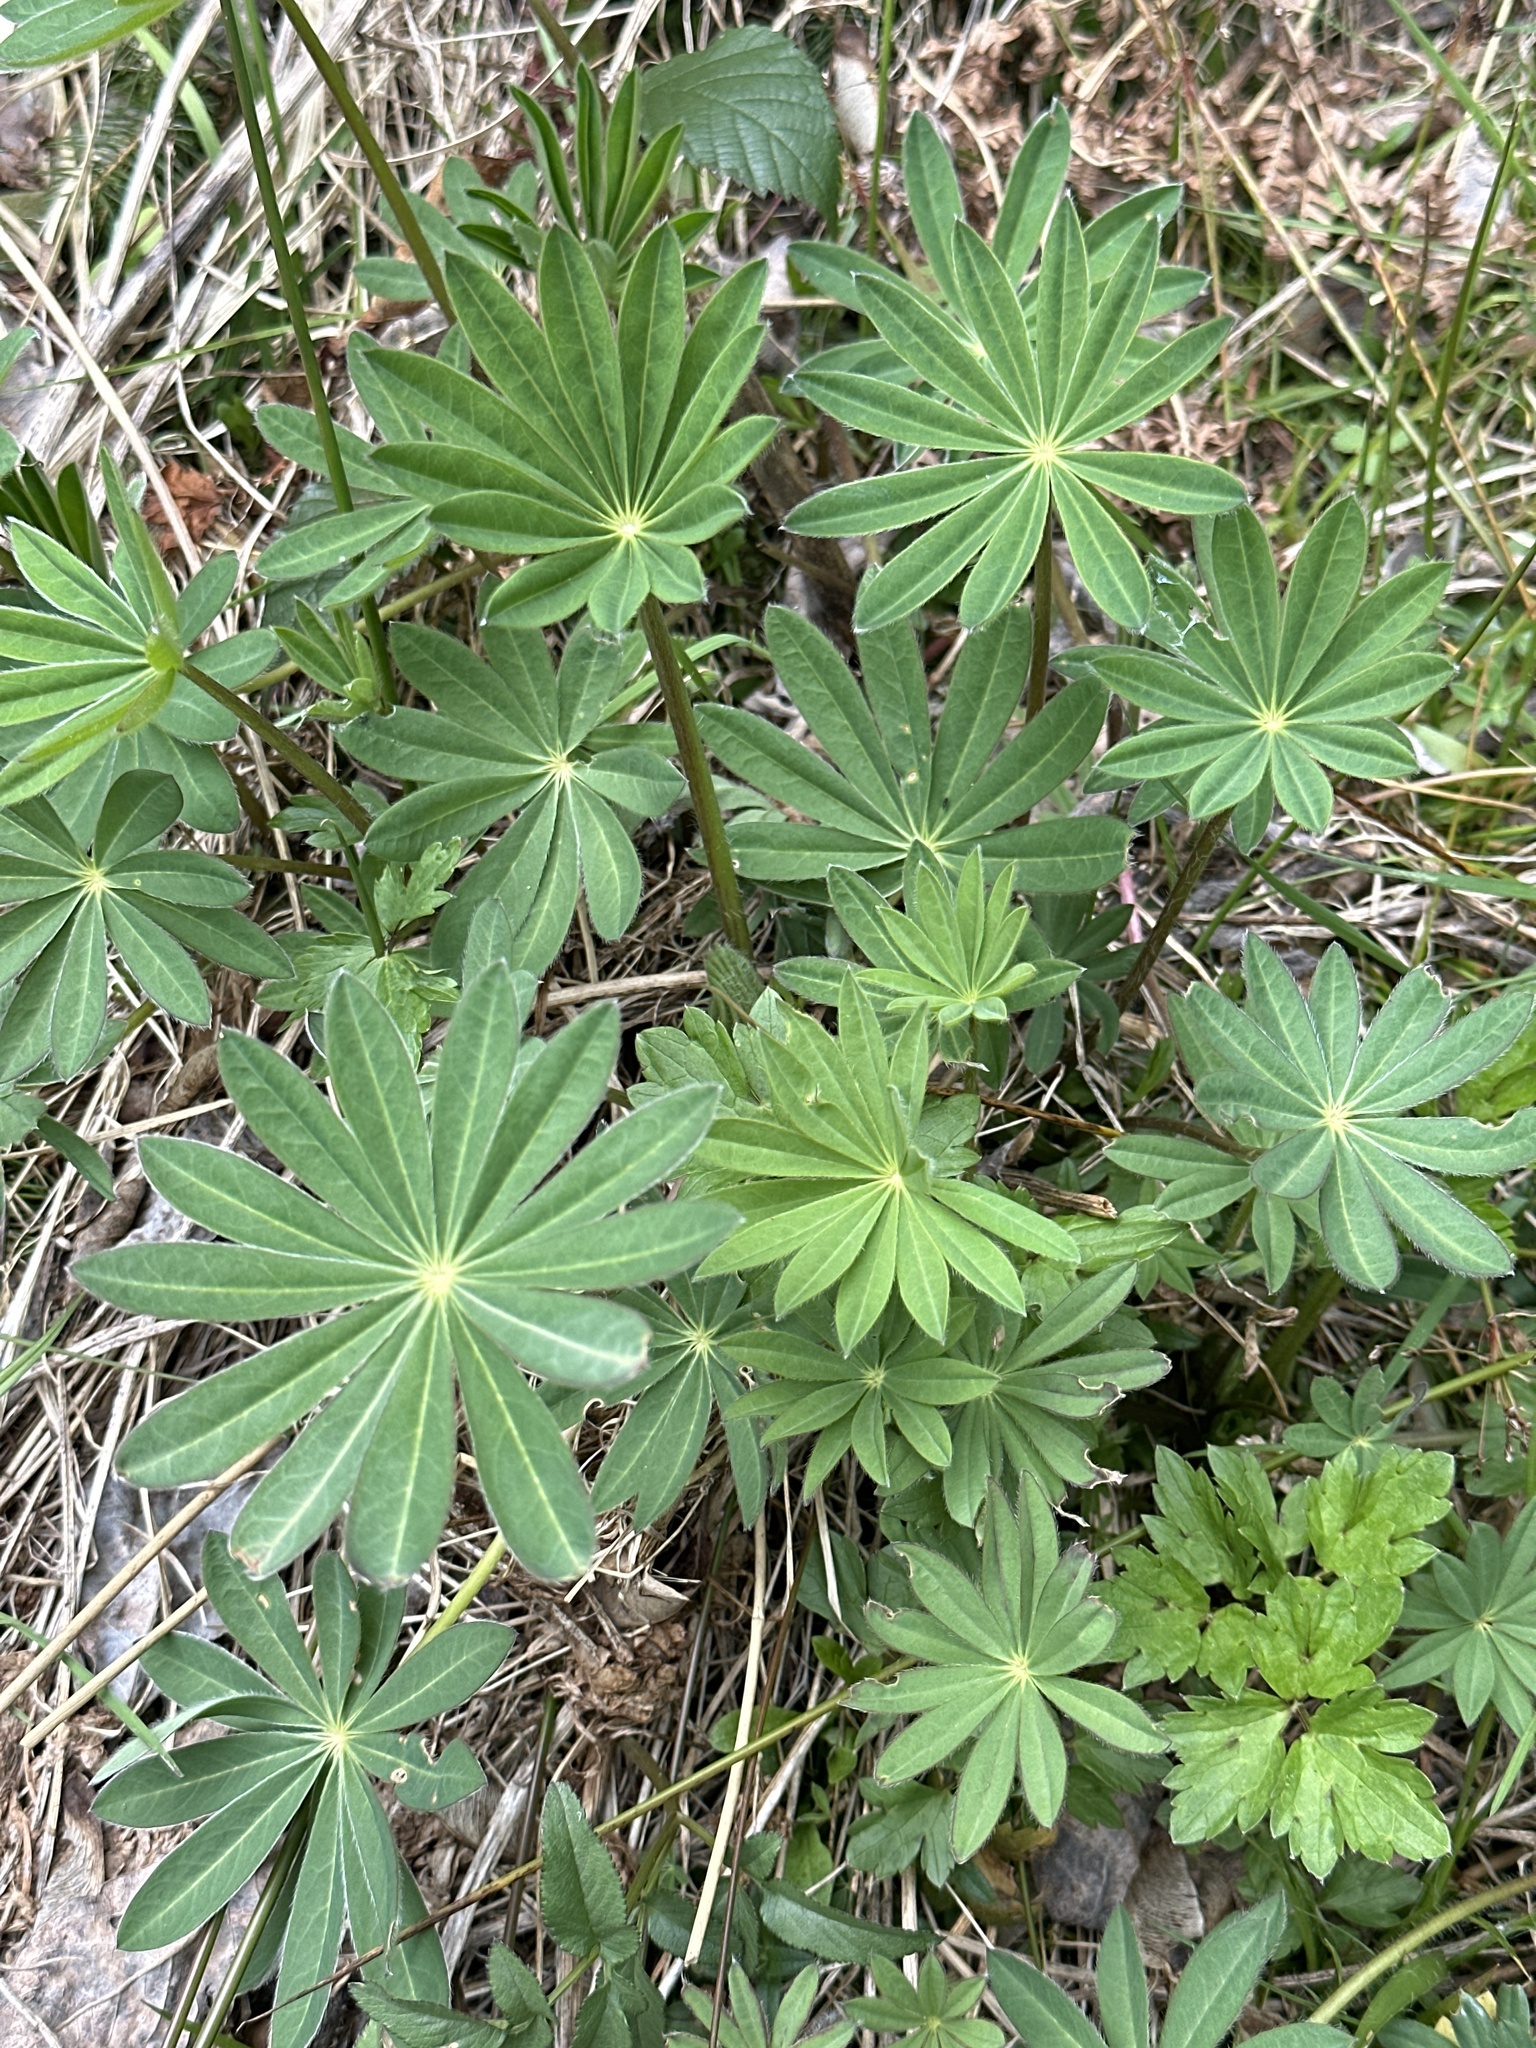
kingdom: Plantae
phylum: Tracheophyta
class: Magnoliopsida
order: Fabales
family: Fabaceae
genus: Lupinus
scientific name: Lupinus polyphyllus
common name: Garden lupin
